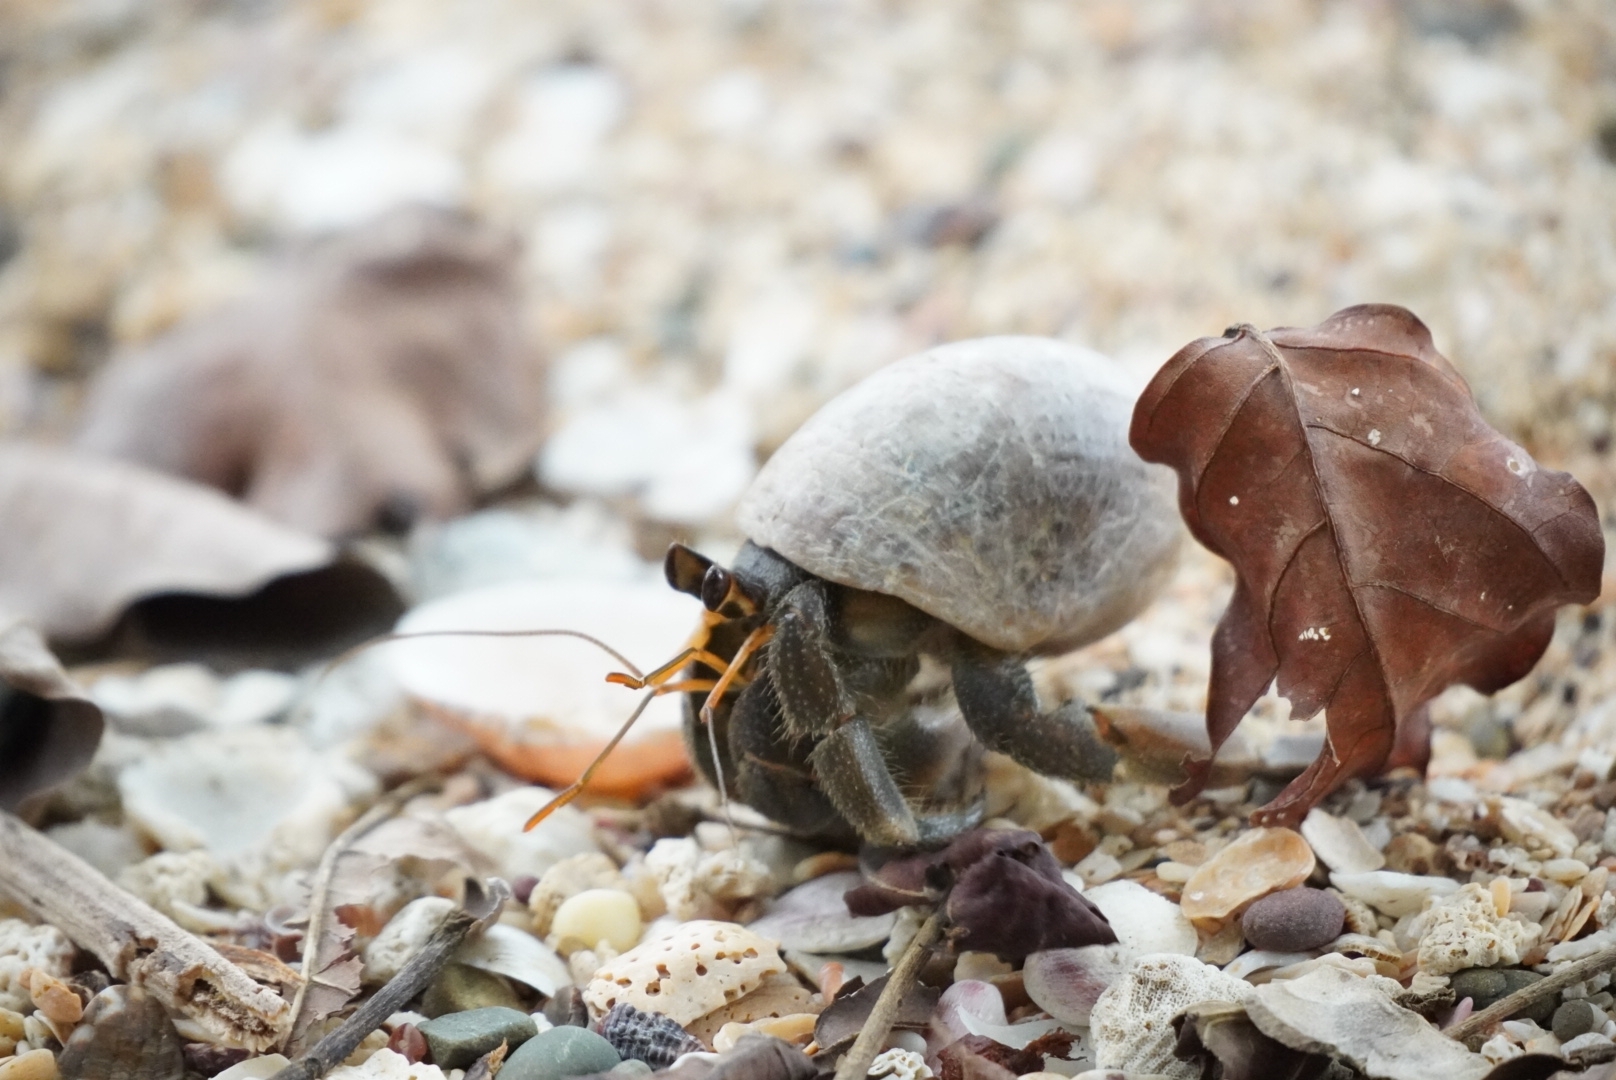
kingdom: Animalia
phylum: Arthropoda
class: Malacostraca
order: Decapoda
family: Coenobitidae
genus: Coenobita
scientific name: Coenobita rugosus
